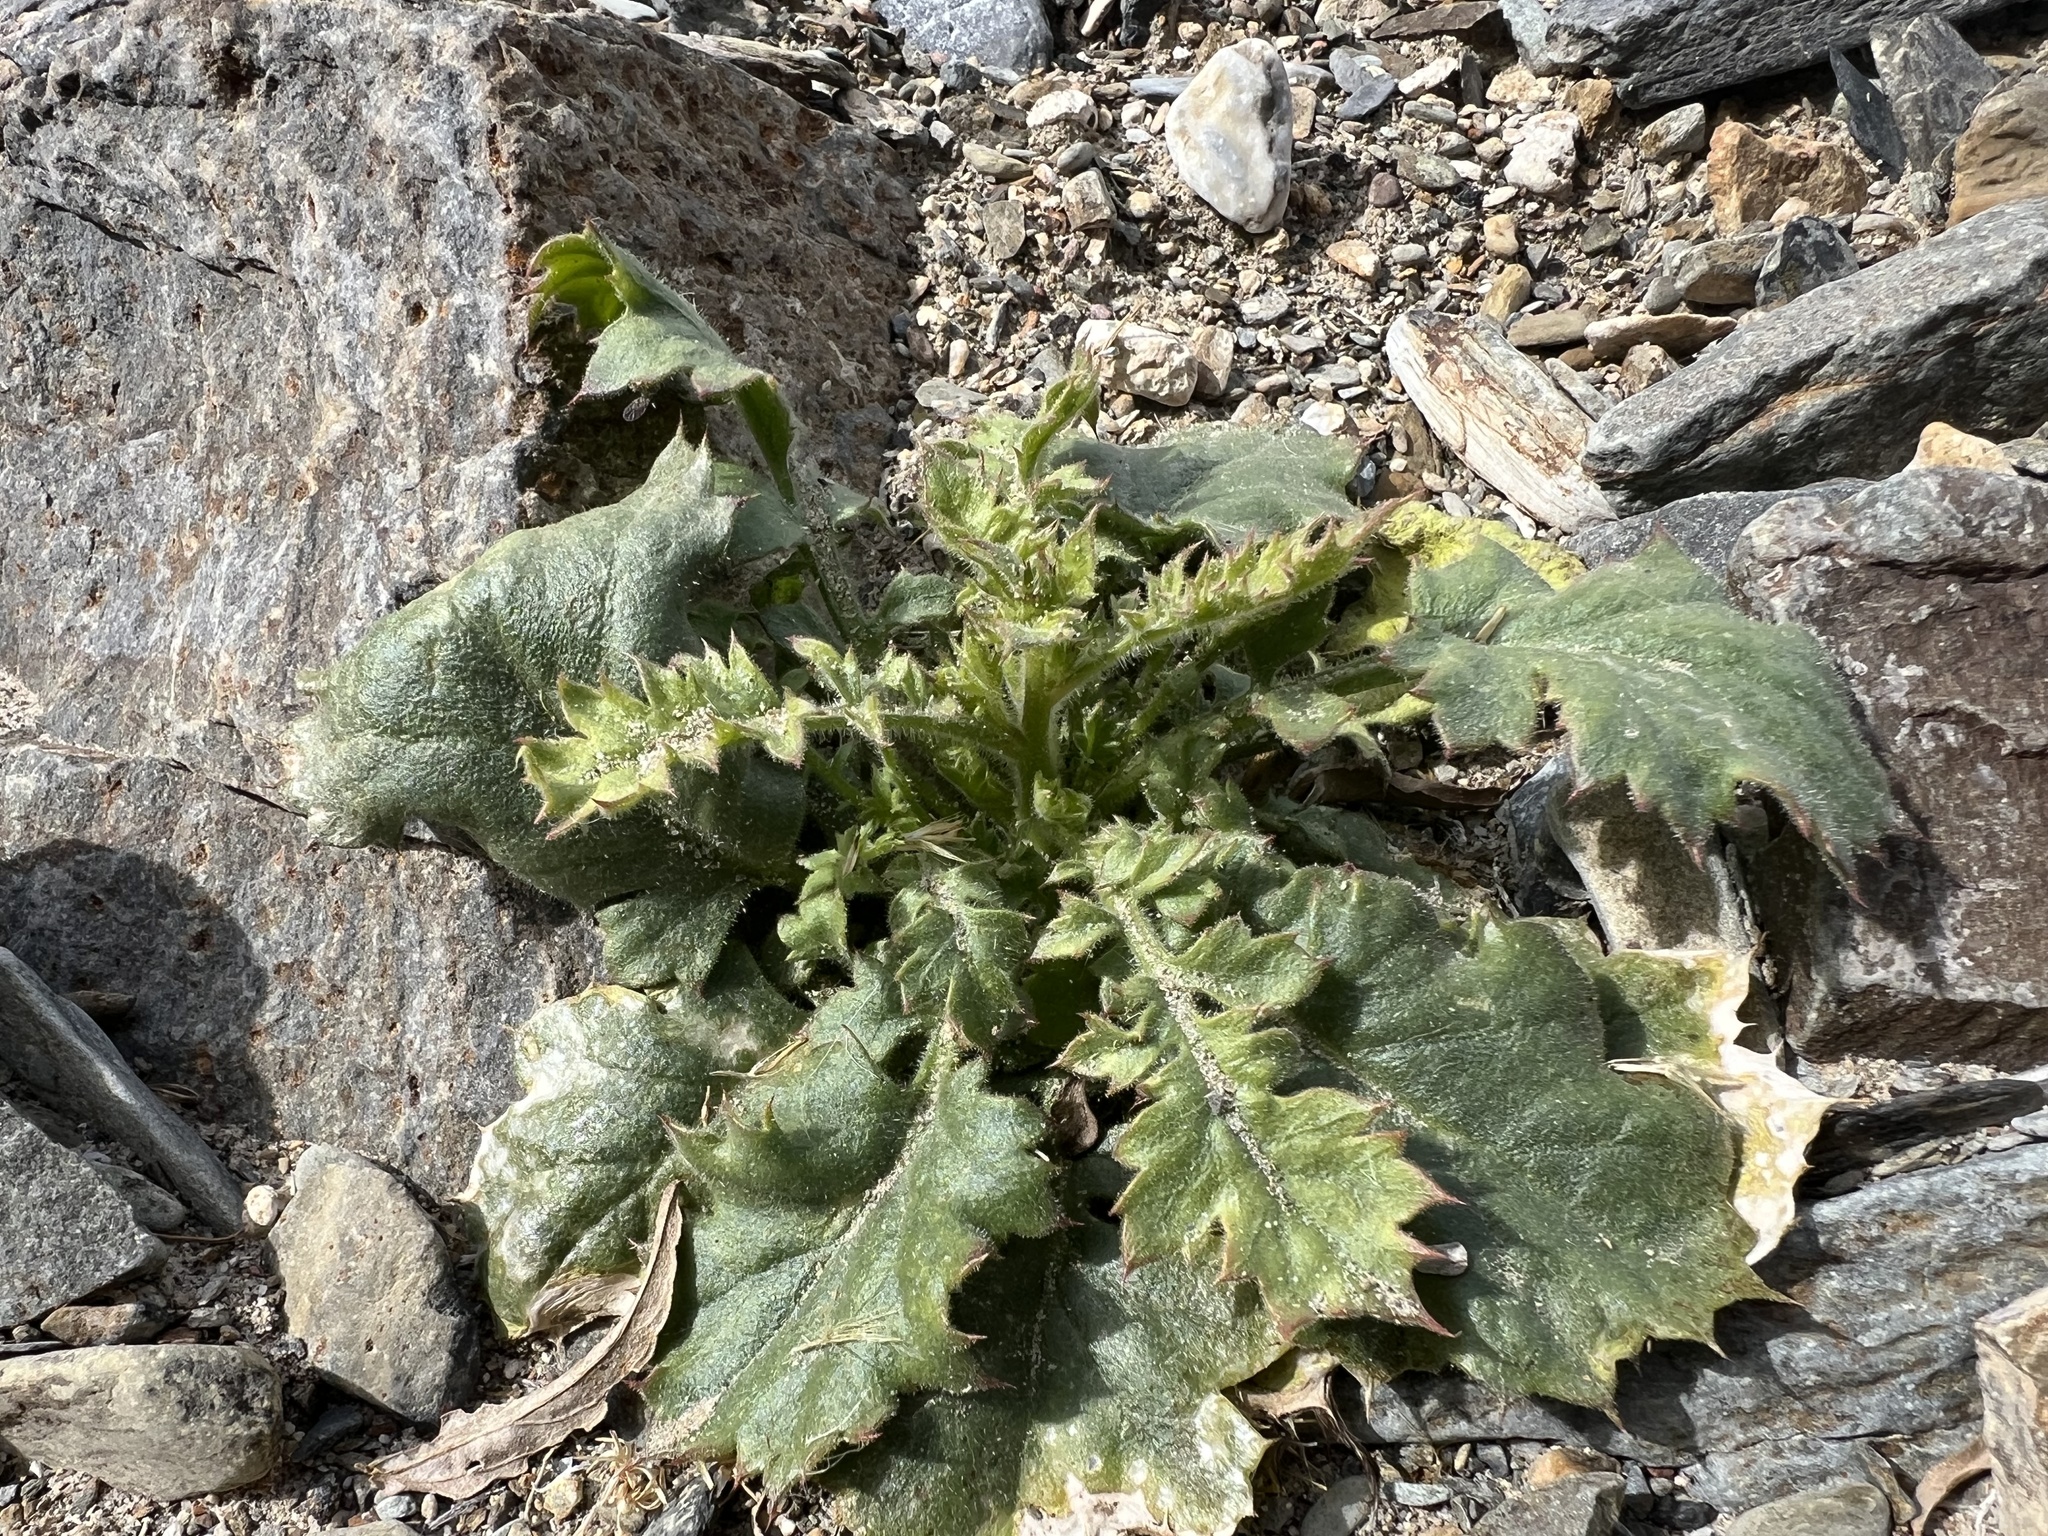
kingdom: Plantae
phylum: Tracheophyta
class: Magnoliopsida
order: Ericales
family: Polemoniaceae
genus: Aliciella
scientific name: Aliciella latifolia
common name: Broad-leaf gilia
